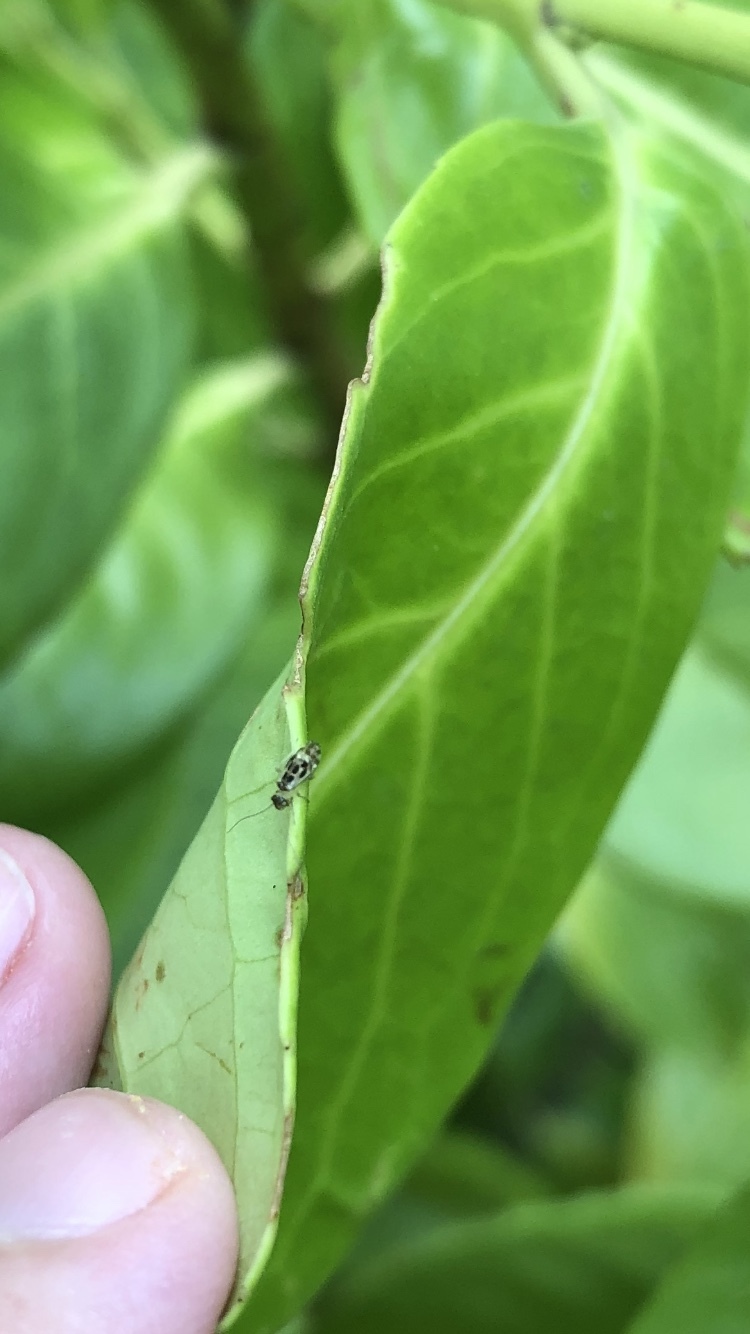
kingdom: Animalia
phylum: Arthropoda
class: Insecta
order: Psocodea
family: Stenopsocidae
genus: Graphopsocus
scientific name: Graphopsocus cruciatus
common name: Lizard bark louse
